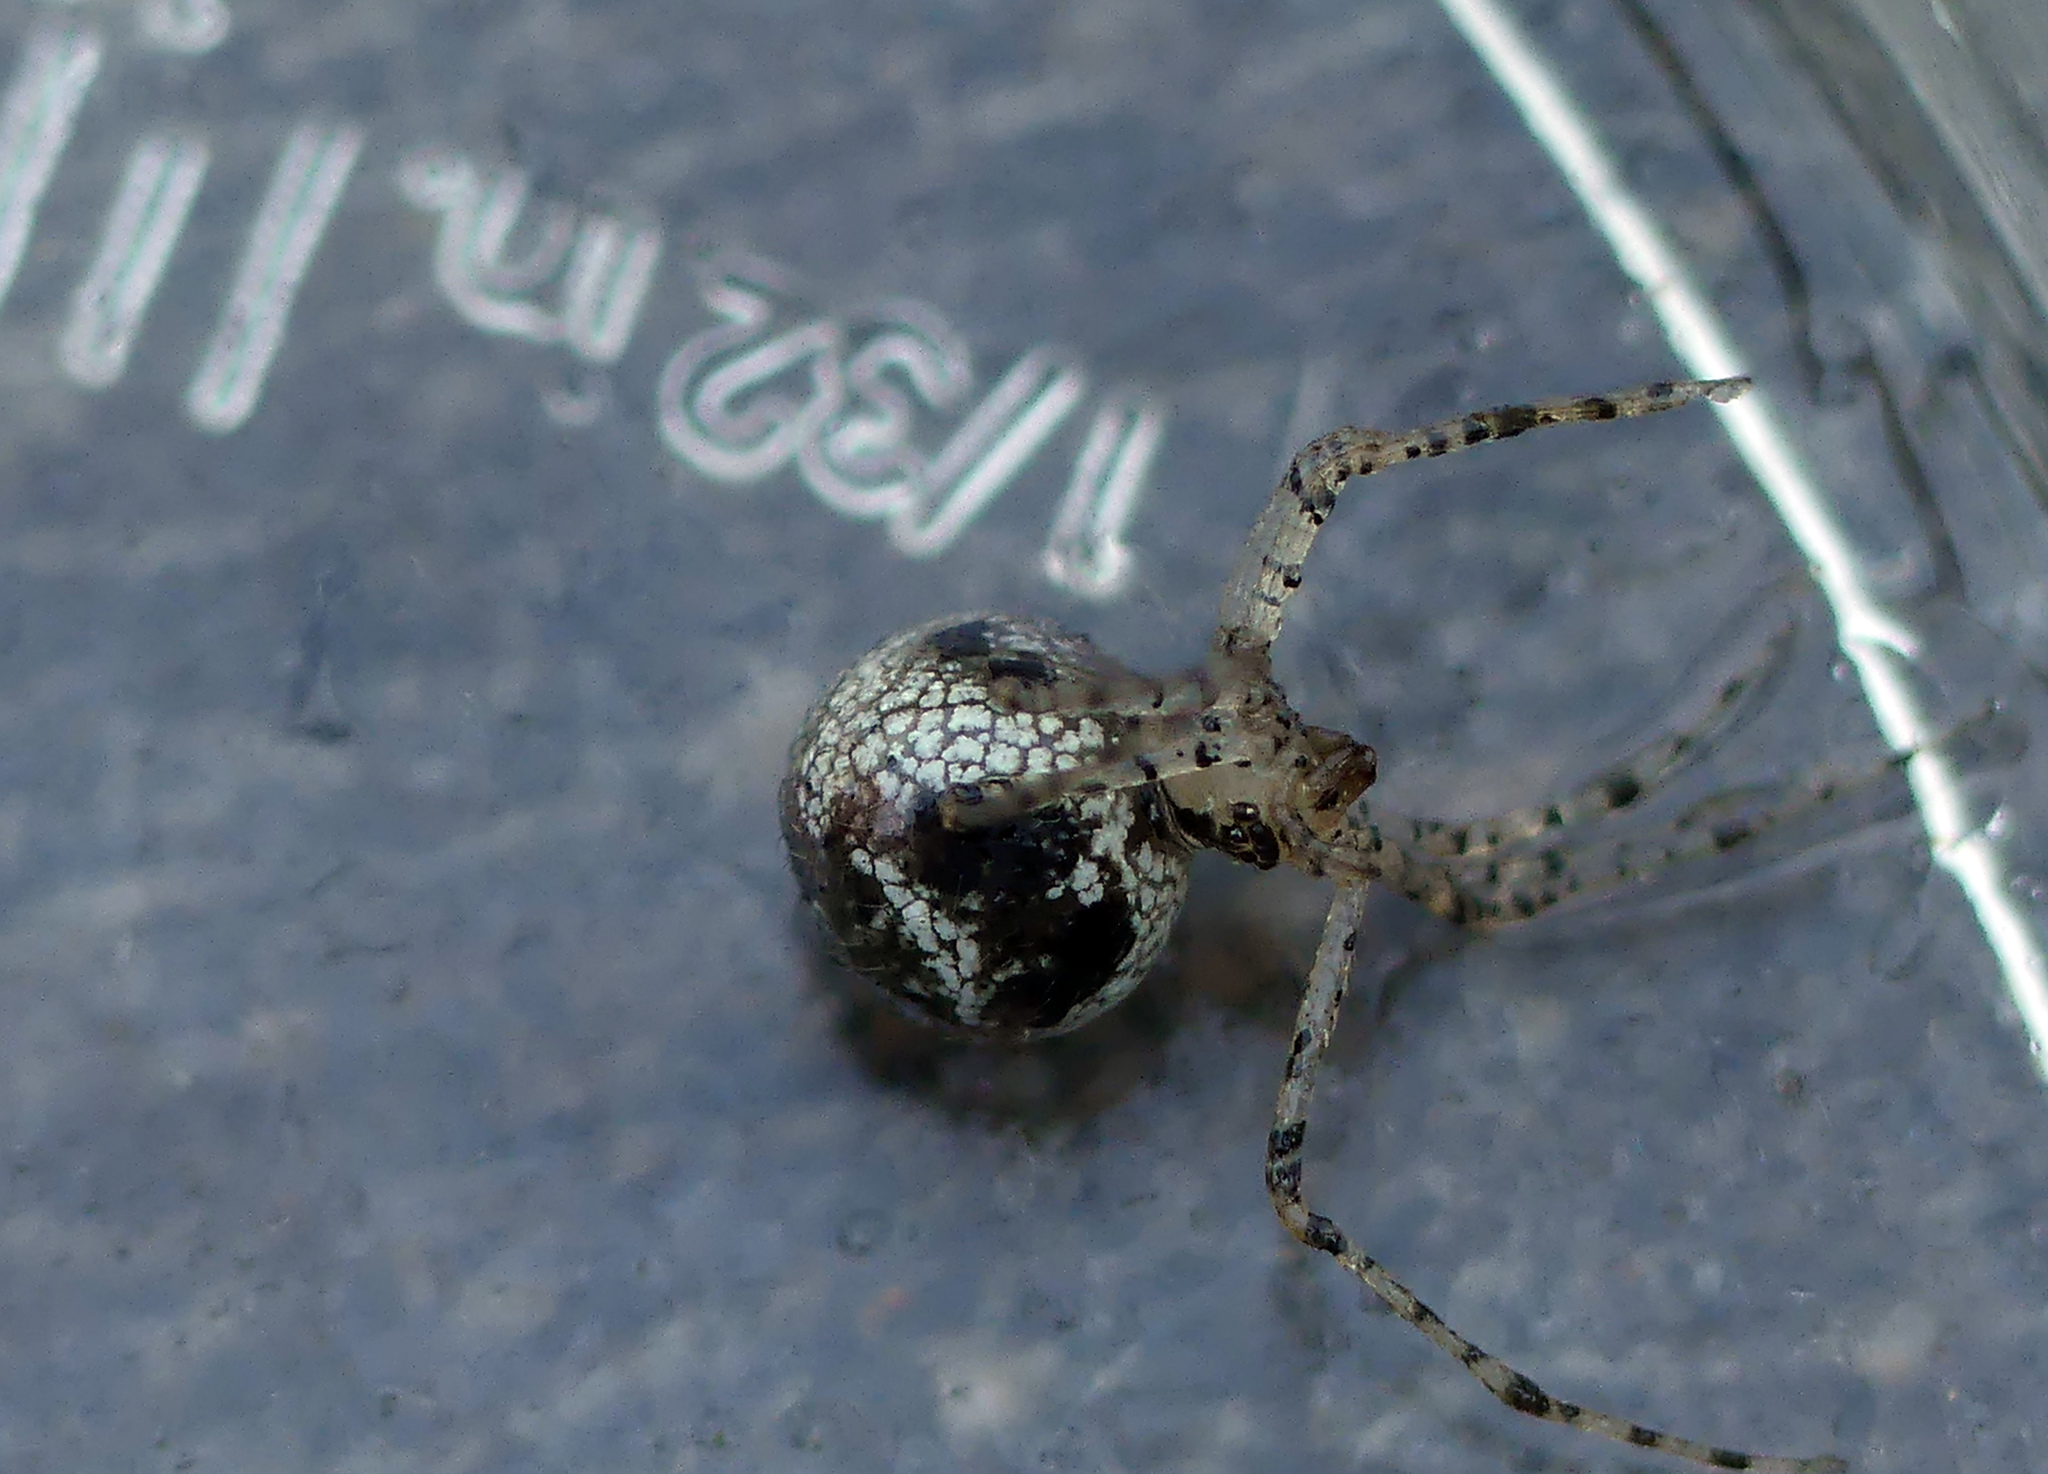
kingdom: Animalia
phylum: Arthropoda
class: Arachnida
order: Araneae
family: Theridiidae
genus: Platnickina
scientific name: Platnickina tincta
